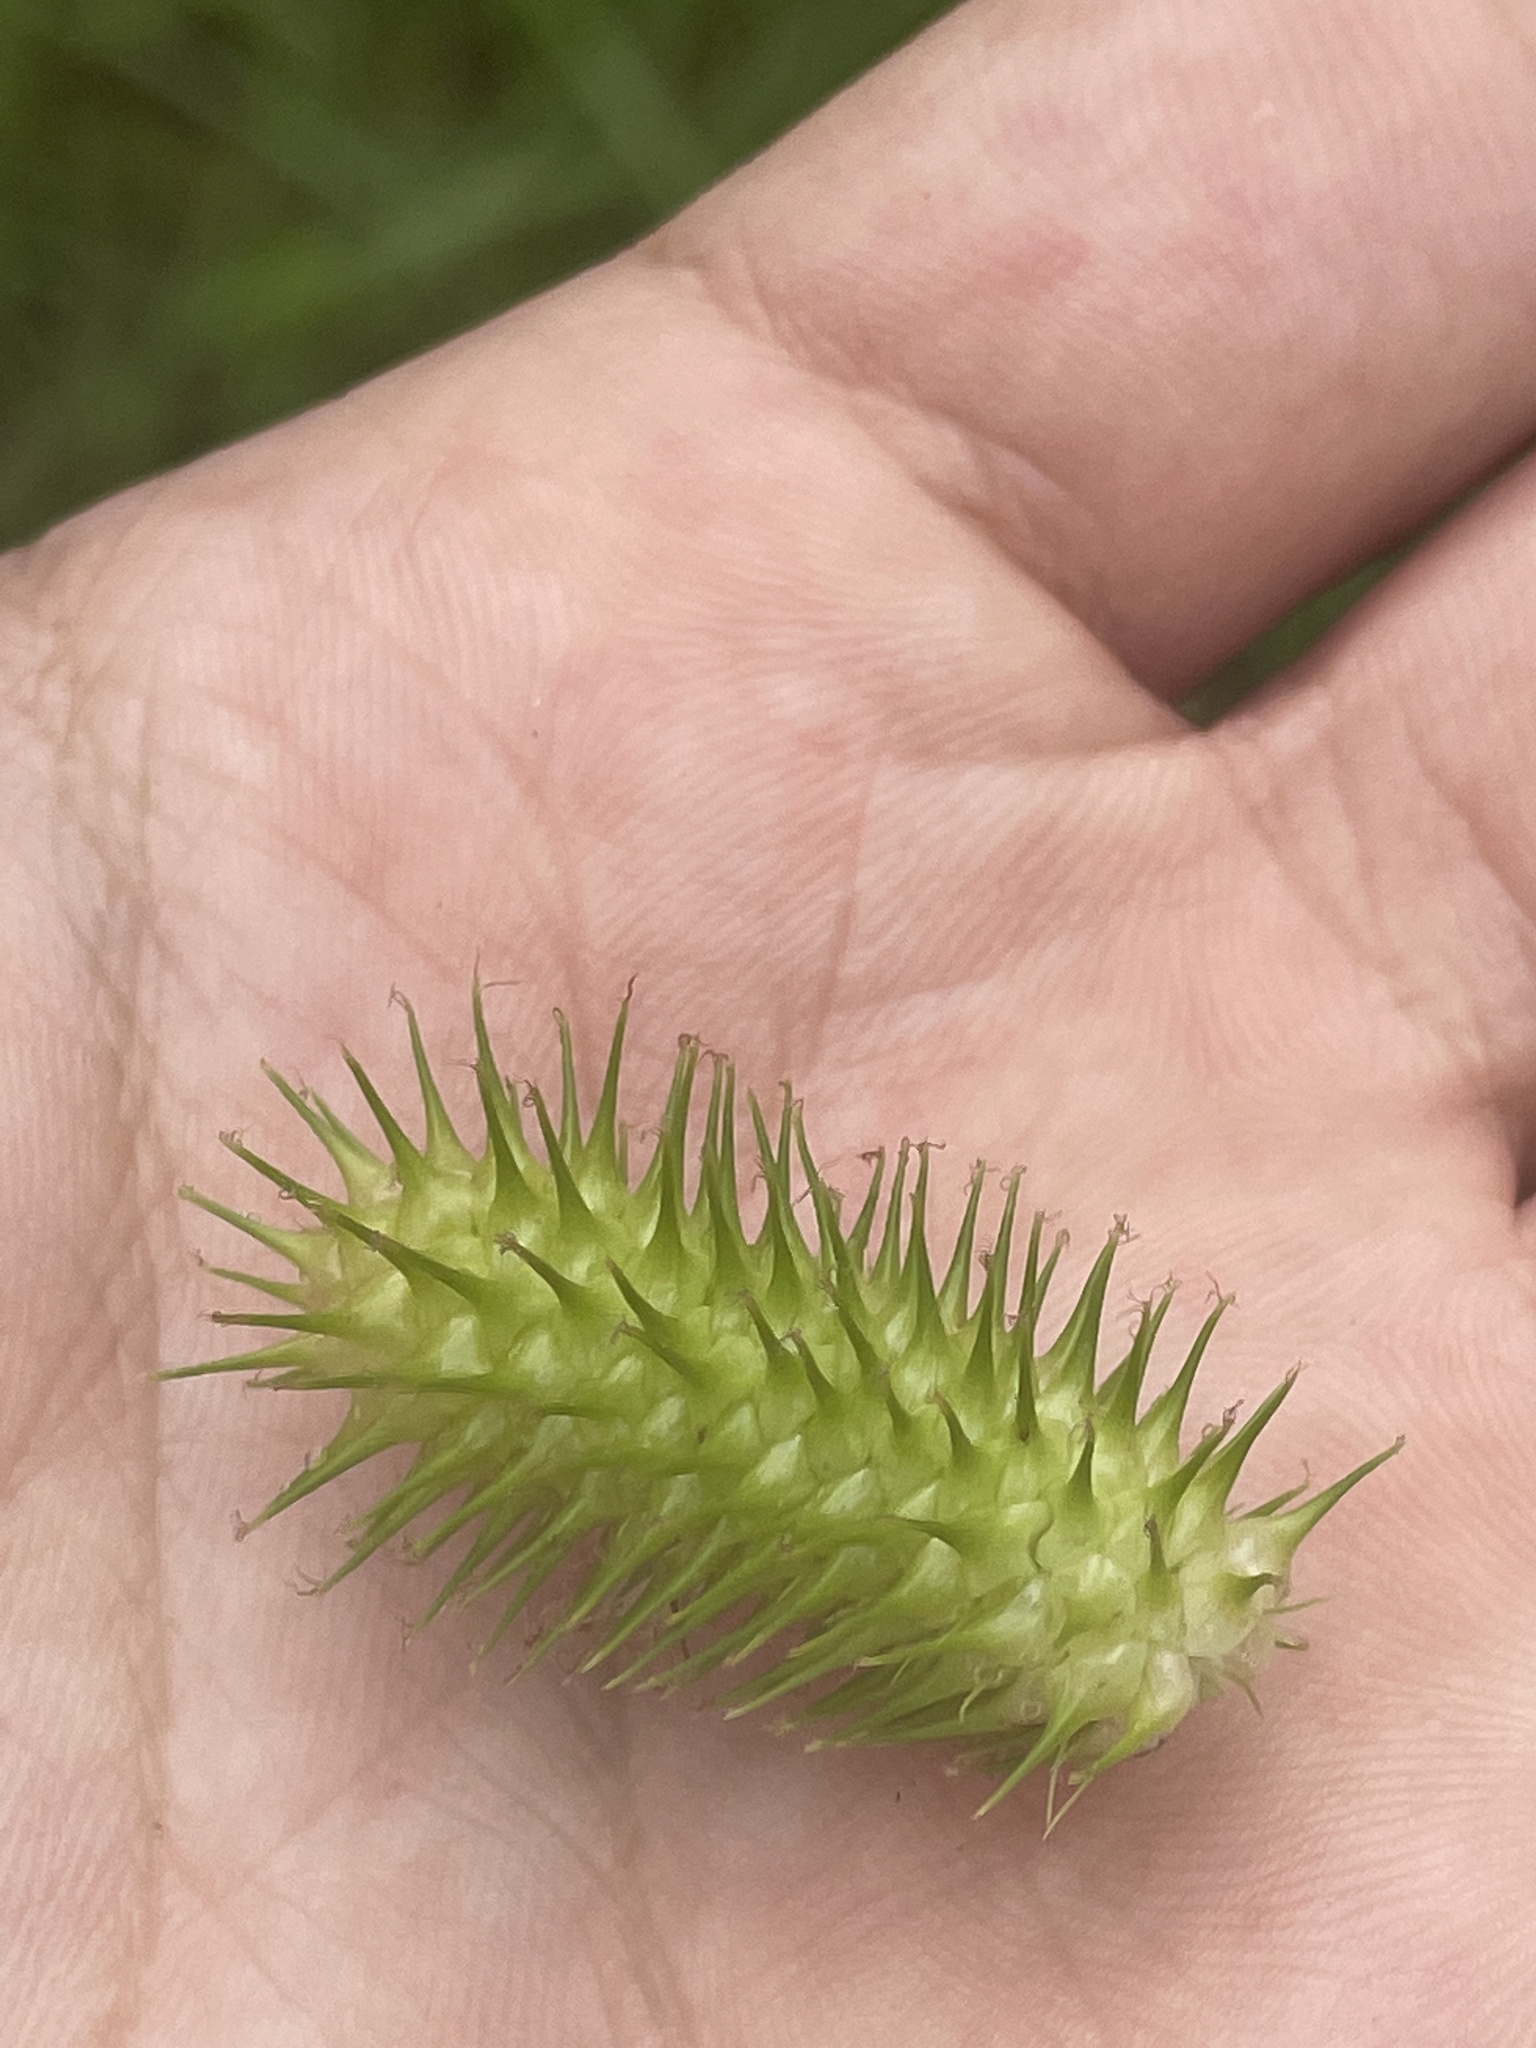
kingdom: Plantae
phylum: Tracheophyta
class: Liliopsida
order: Poales
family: Cyperaceae
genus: Carex
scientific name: Carex lurida
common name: Sallow sedge
